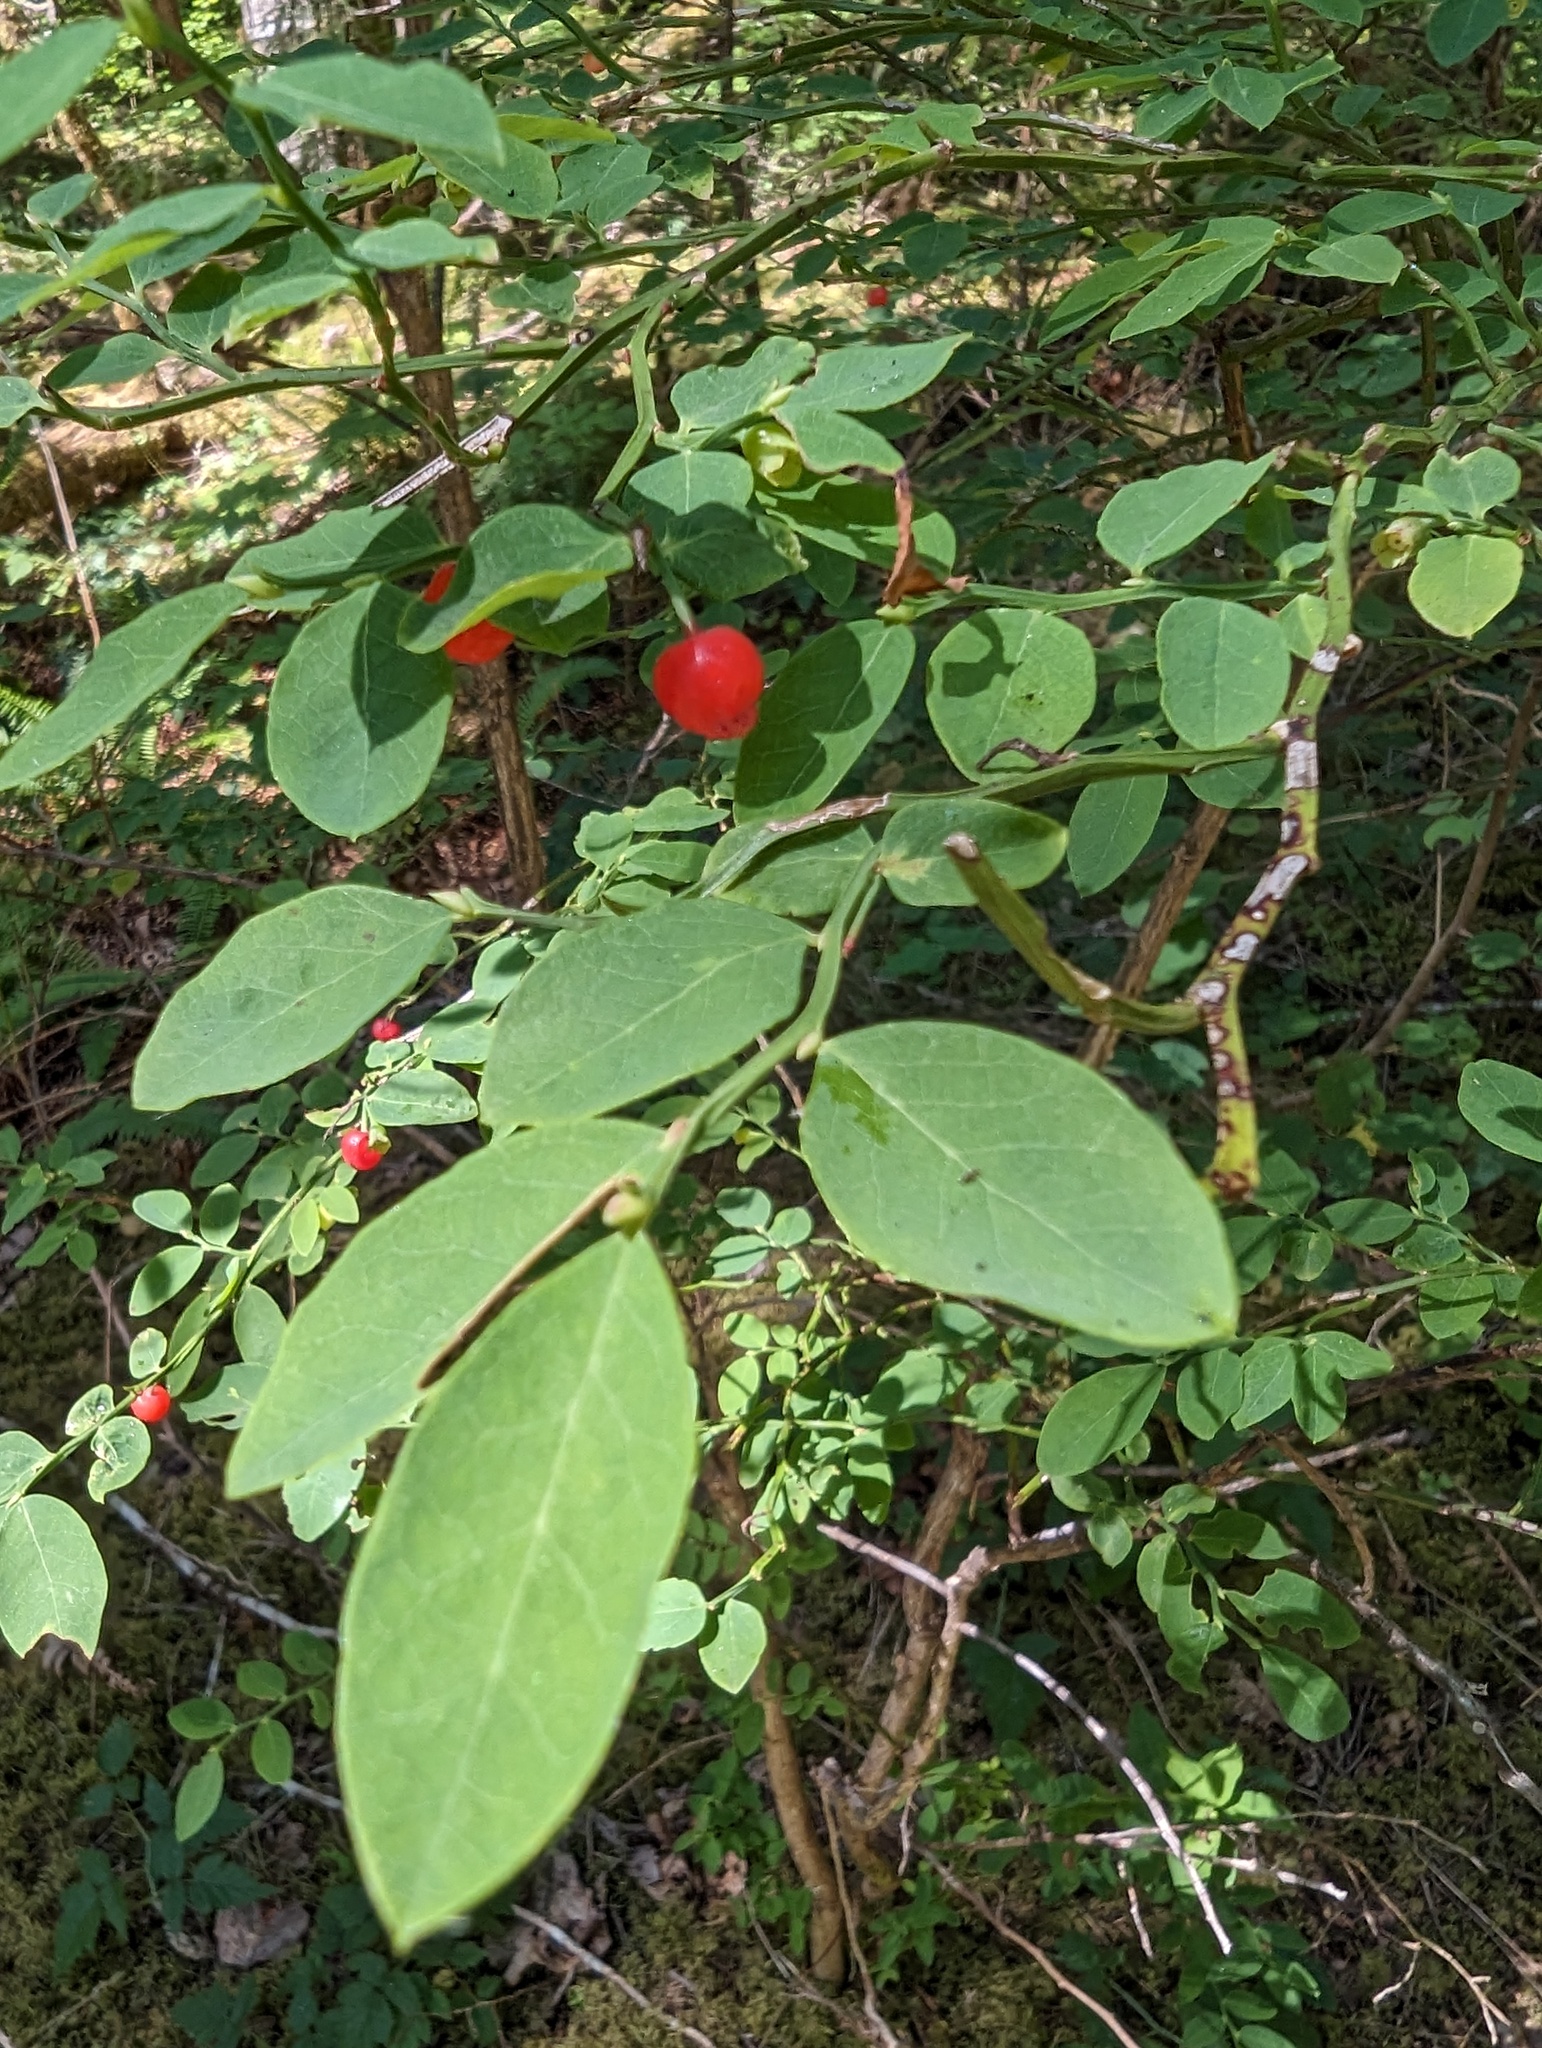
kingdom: Plantae
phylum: Tracheophyta
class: Magnoliopsida
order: Ericales
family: Ericaceae
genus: Vaccinium
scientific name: Vaccinium parvifolium
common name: Red-huckleberry
